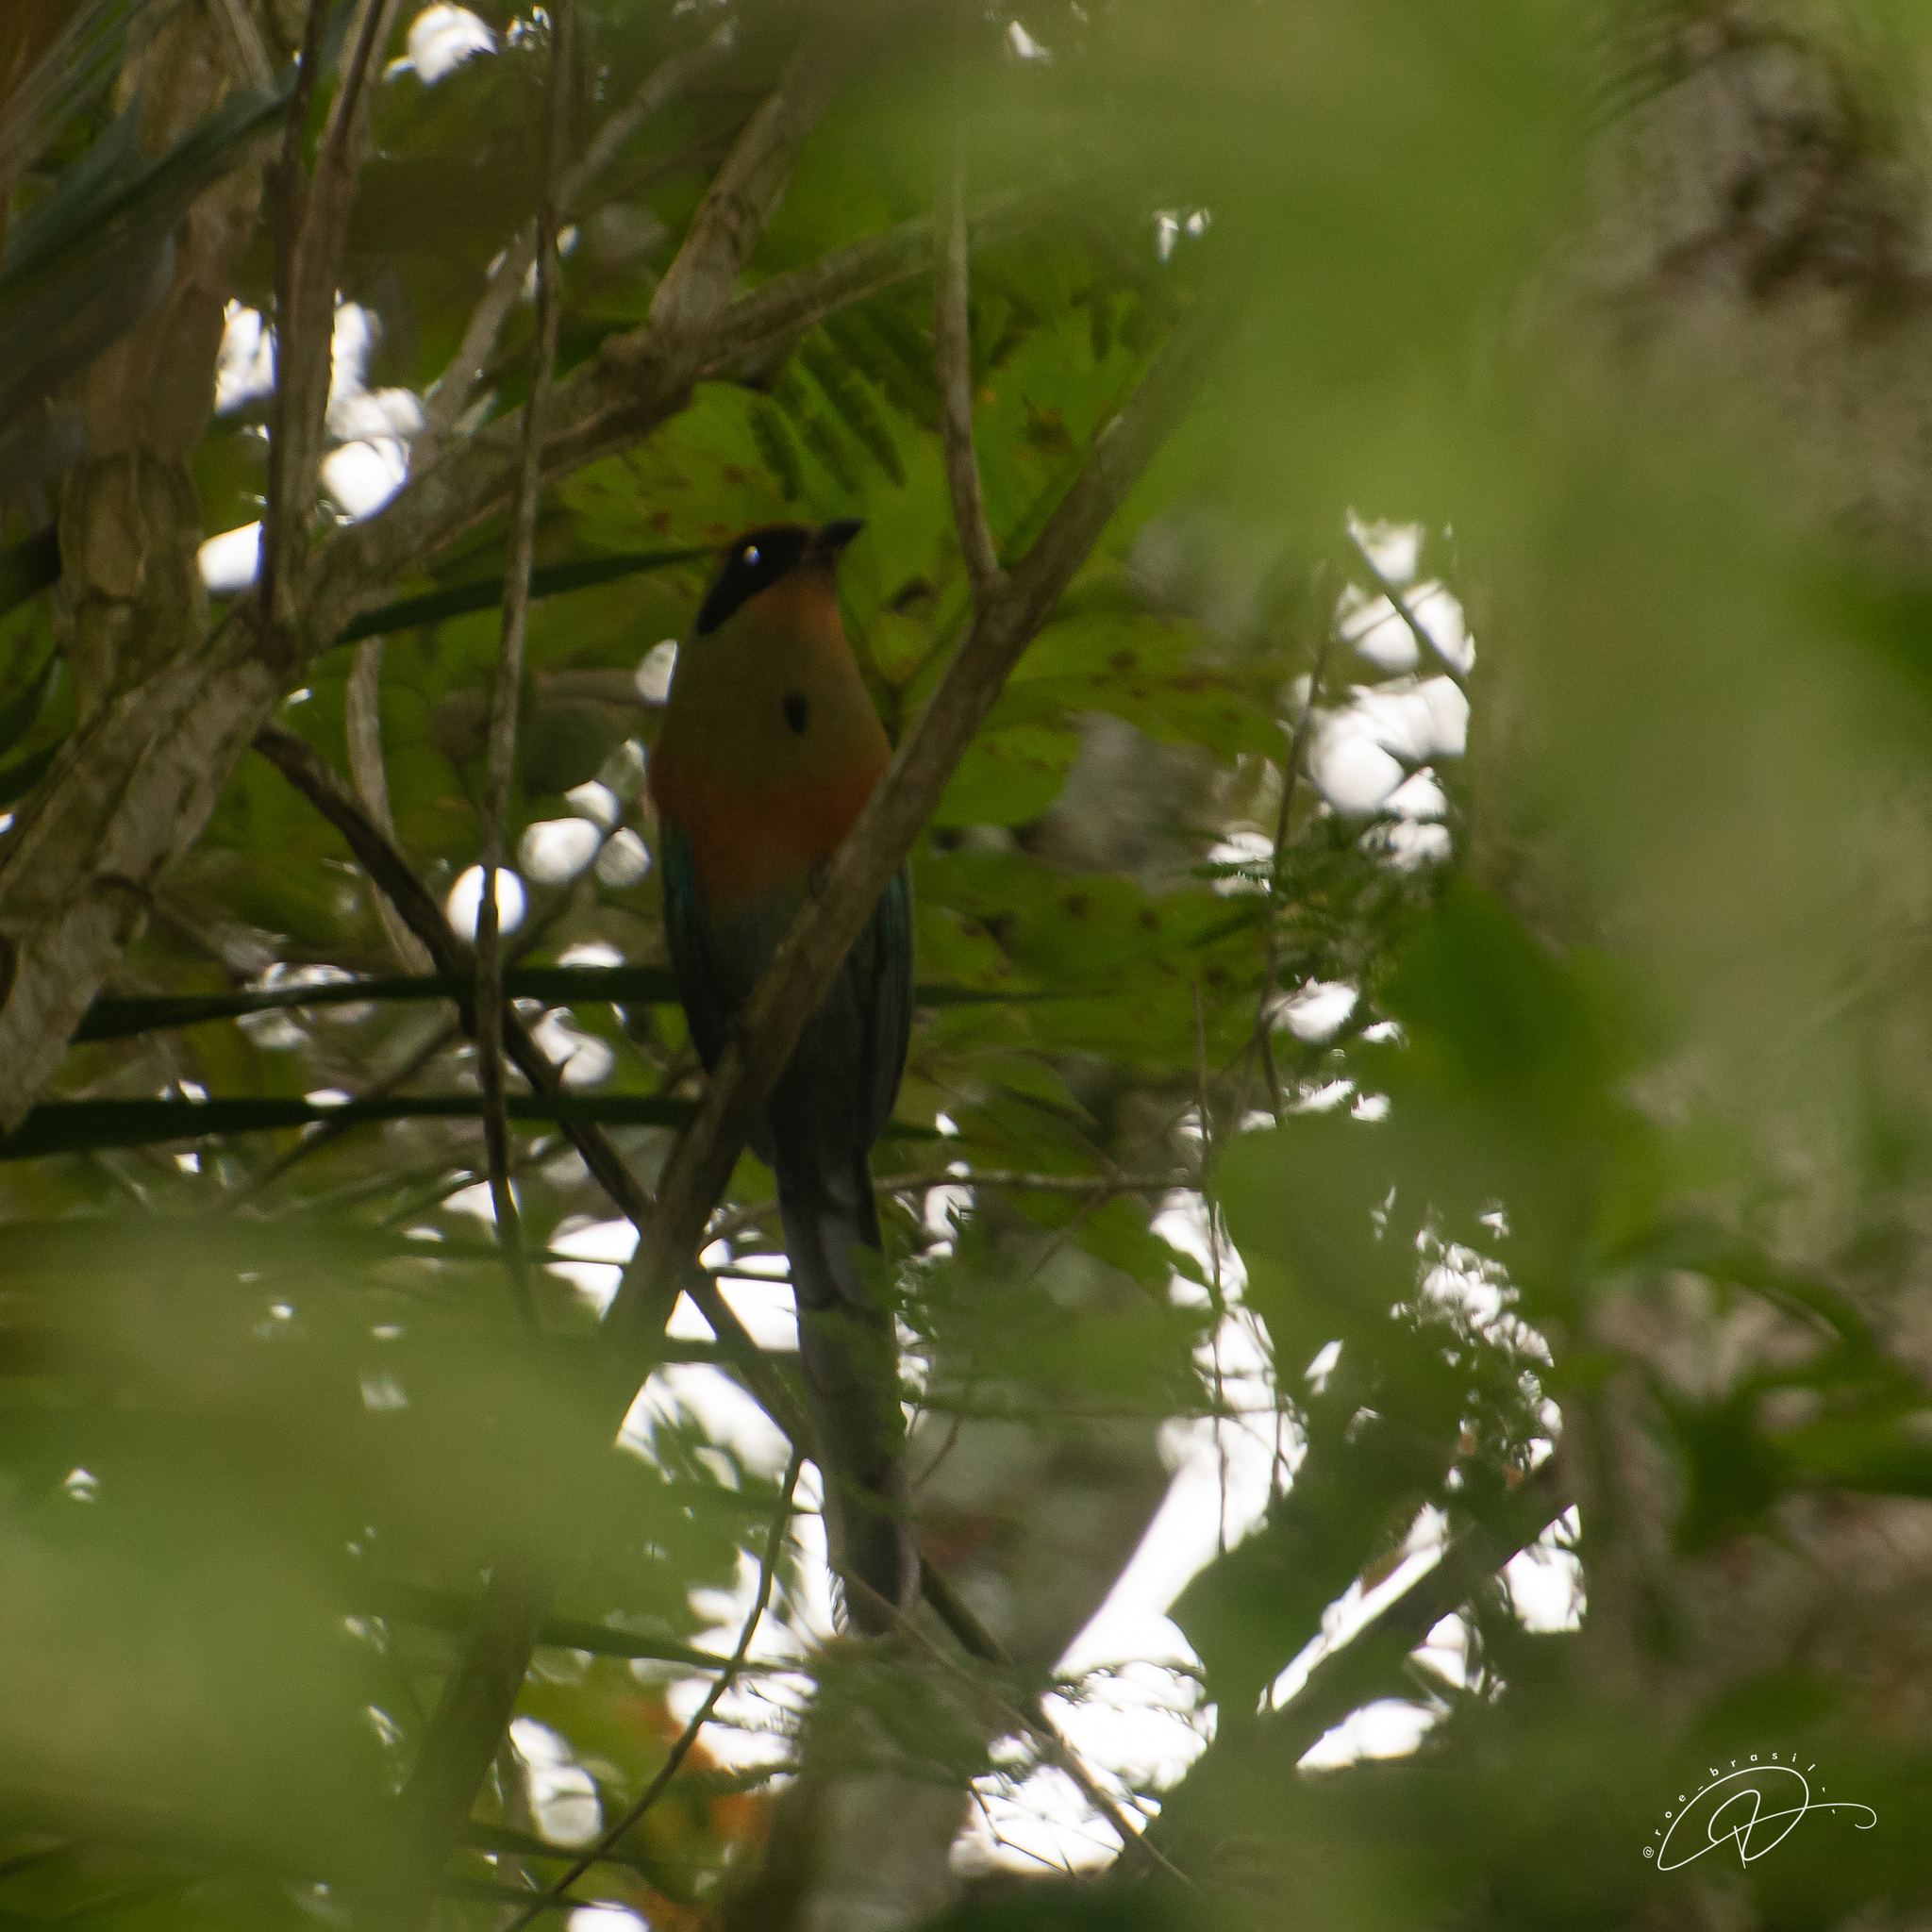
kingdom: Animalia
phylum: Chordata
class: Aves
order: Coraciiformes
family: Momotidae
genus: Baryphthengus
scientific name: Baryphthengus ruficapillus
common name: Rufous-capped motmot
